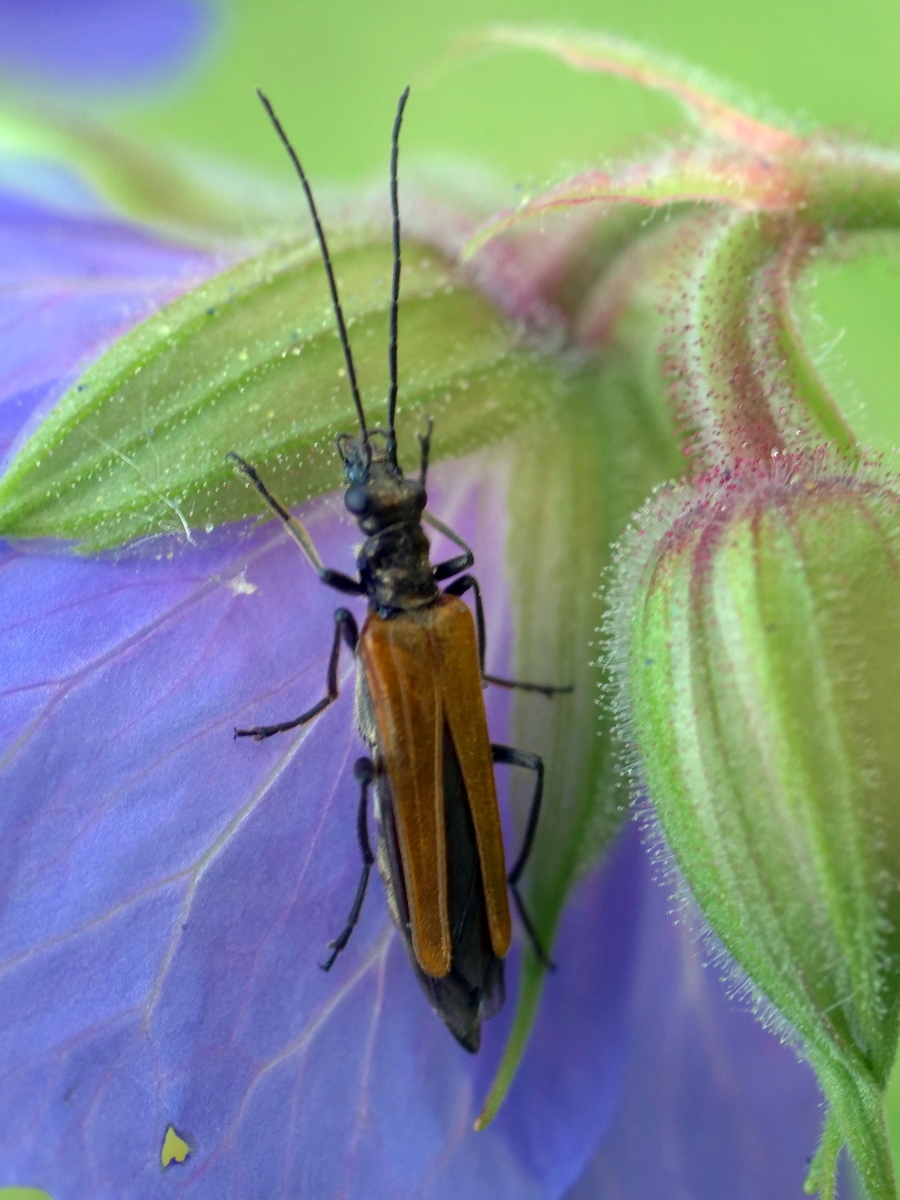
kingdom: Animalia
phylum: Arthropoda
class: Insecta
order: Coleoptera
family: Oedemeridae
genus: Oedemera
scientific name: Oedemera femorata
